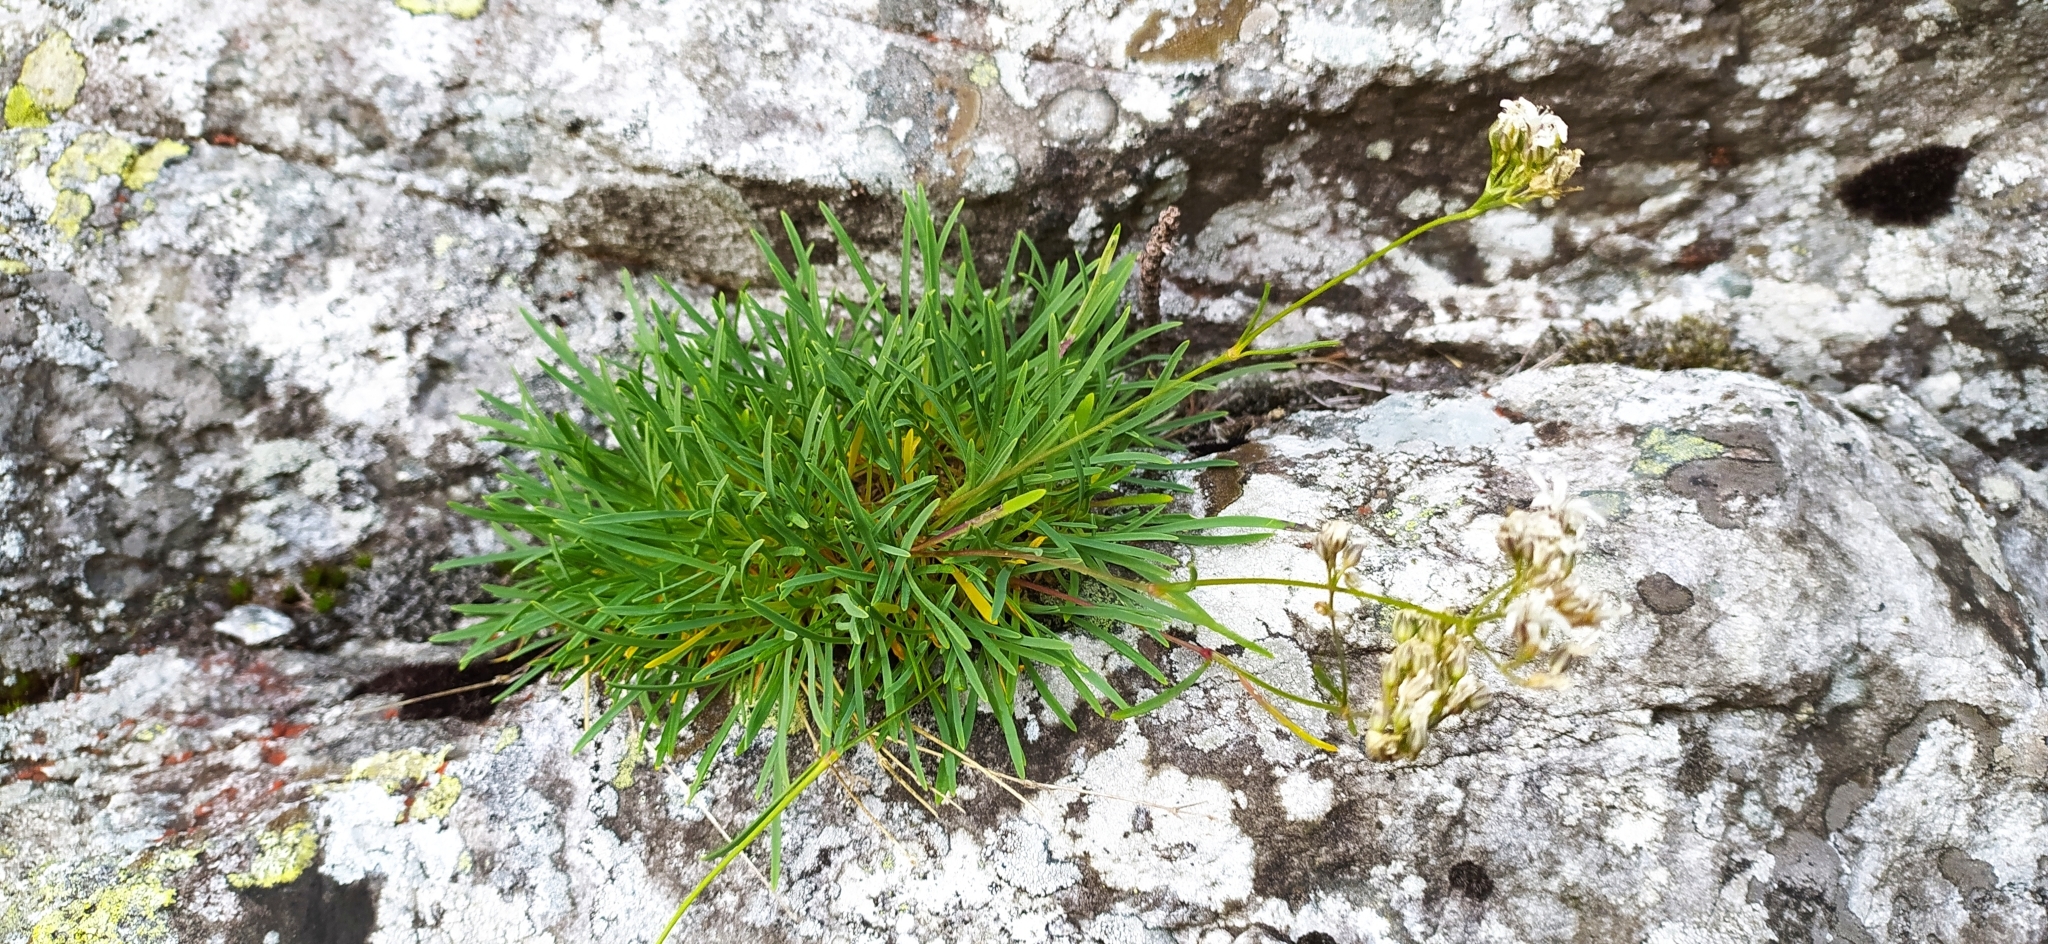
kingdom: Plantae
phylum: Tracheophyta
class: Magnoliopsida
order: Caryophyllales
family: Caryophyllaceae
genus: Gypsophila
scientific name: Gypsophila uralensis
